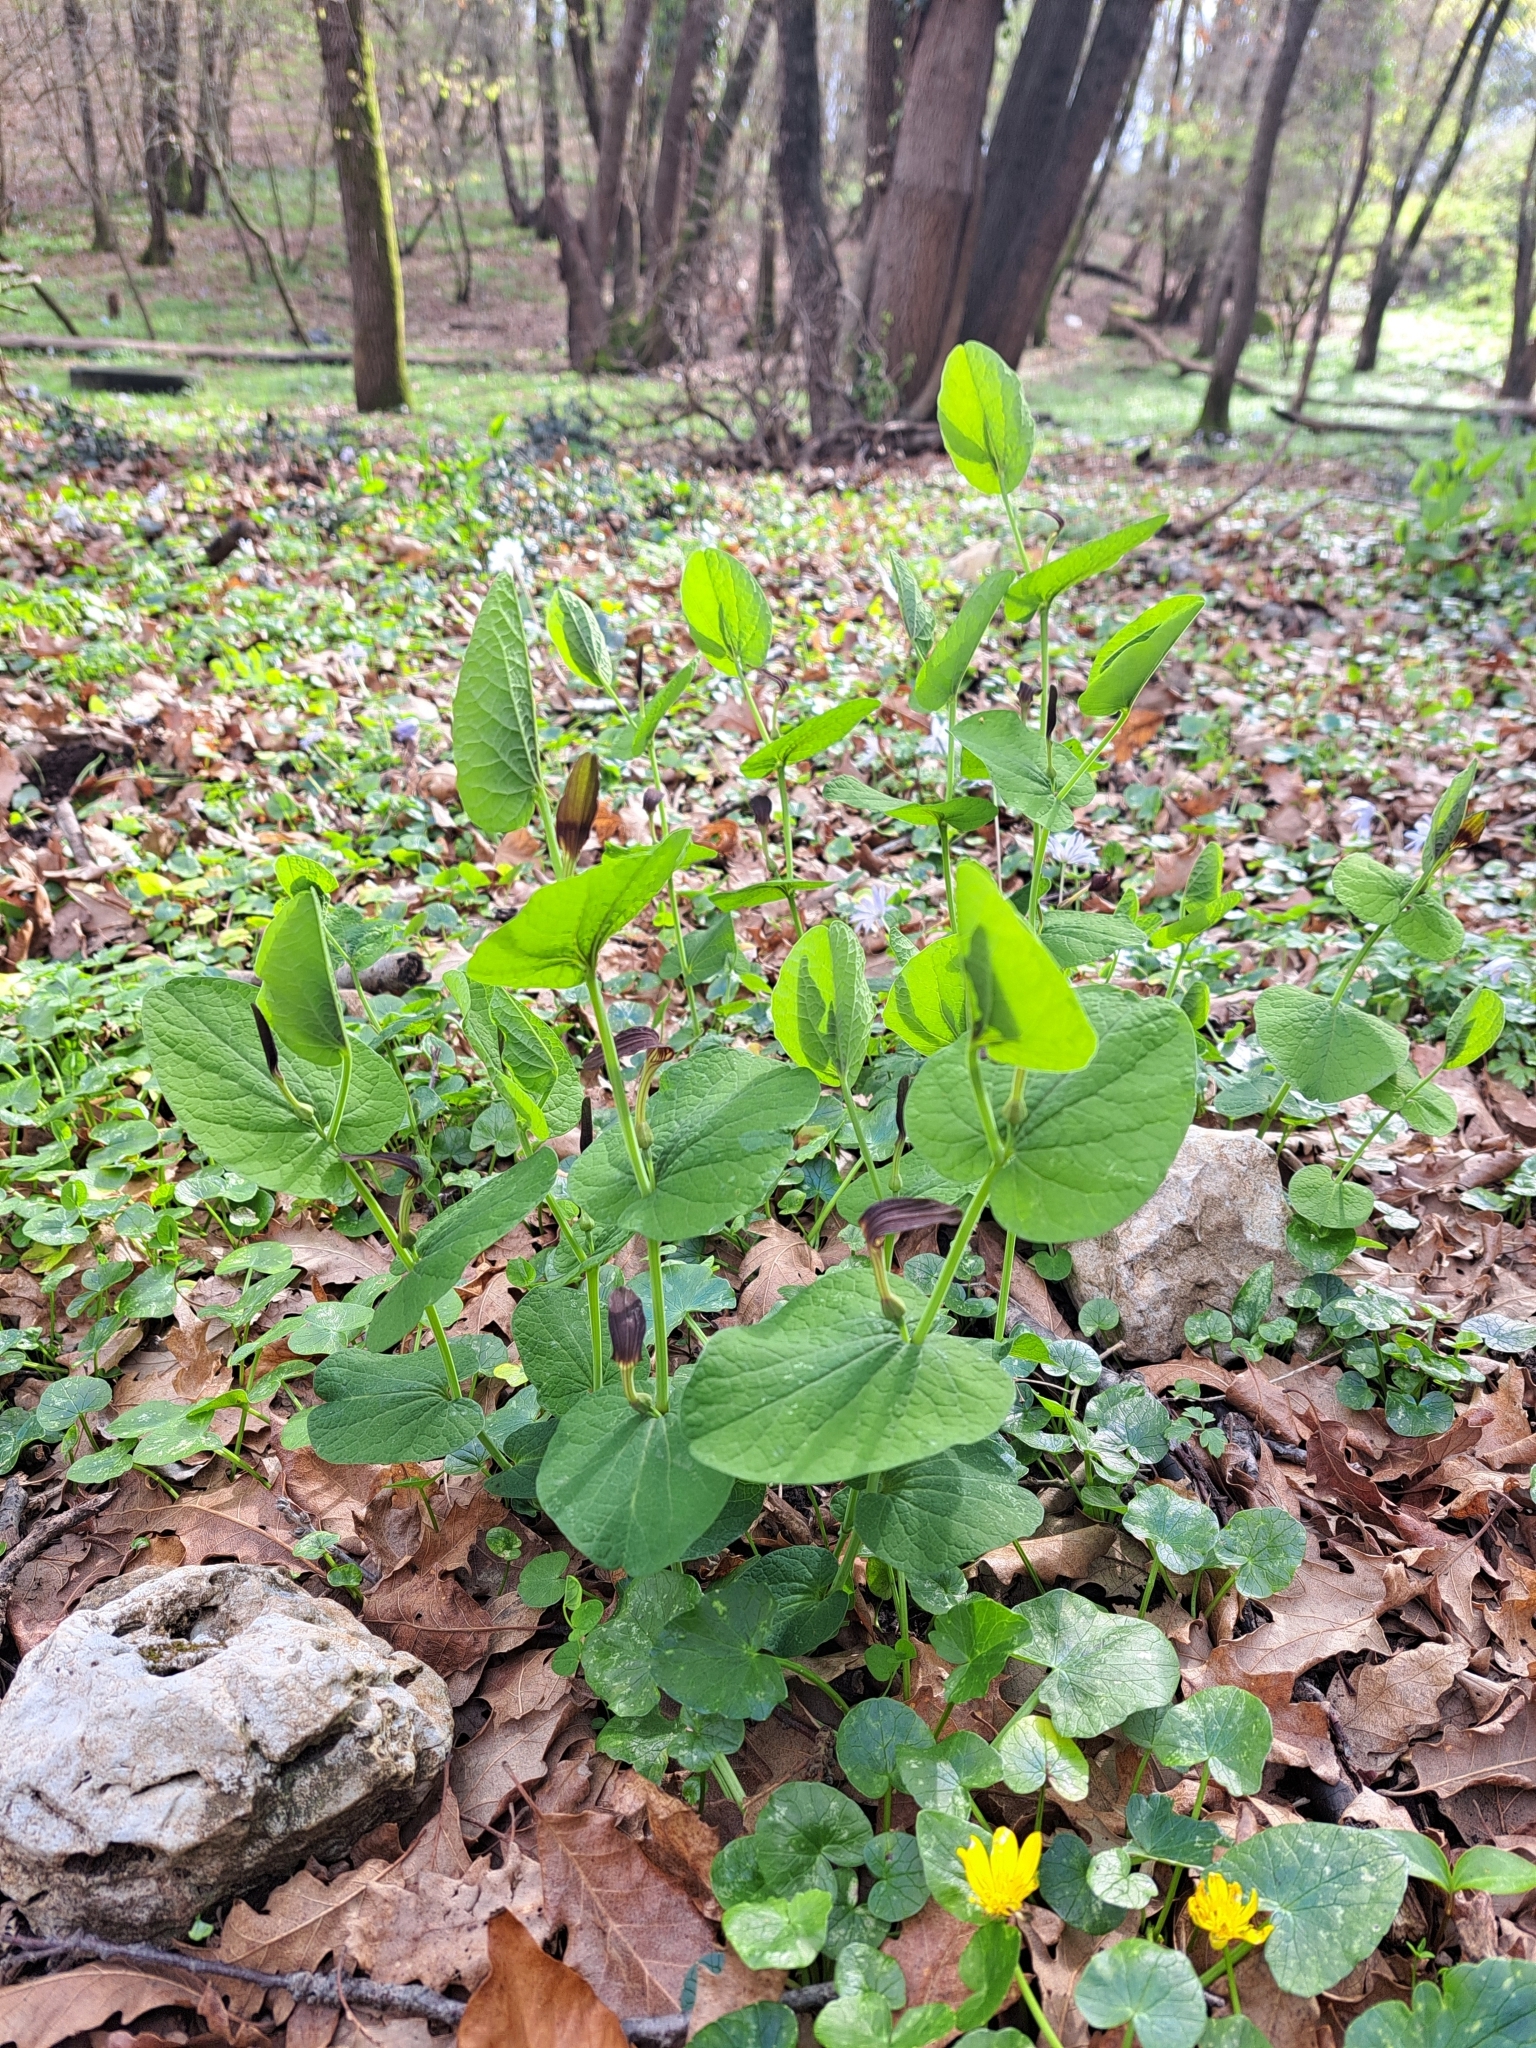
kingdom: Plantae
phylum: Tracheophyta
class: Magnoliopsida
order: Piperales
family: Aristolochiaceae
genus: Aristolochia
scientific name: Aristolochia rotunda
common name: Smearwort
